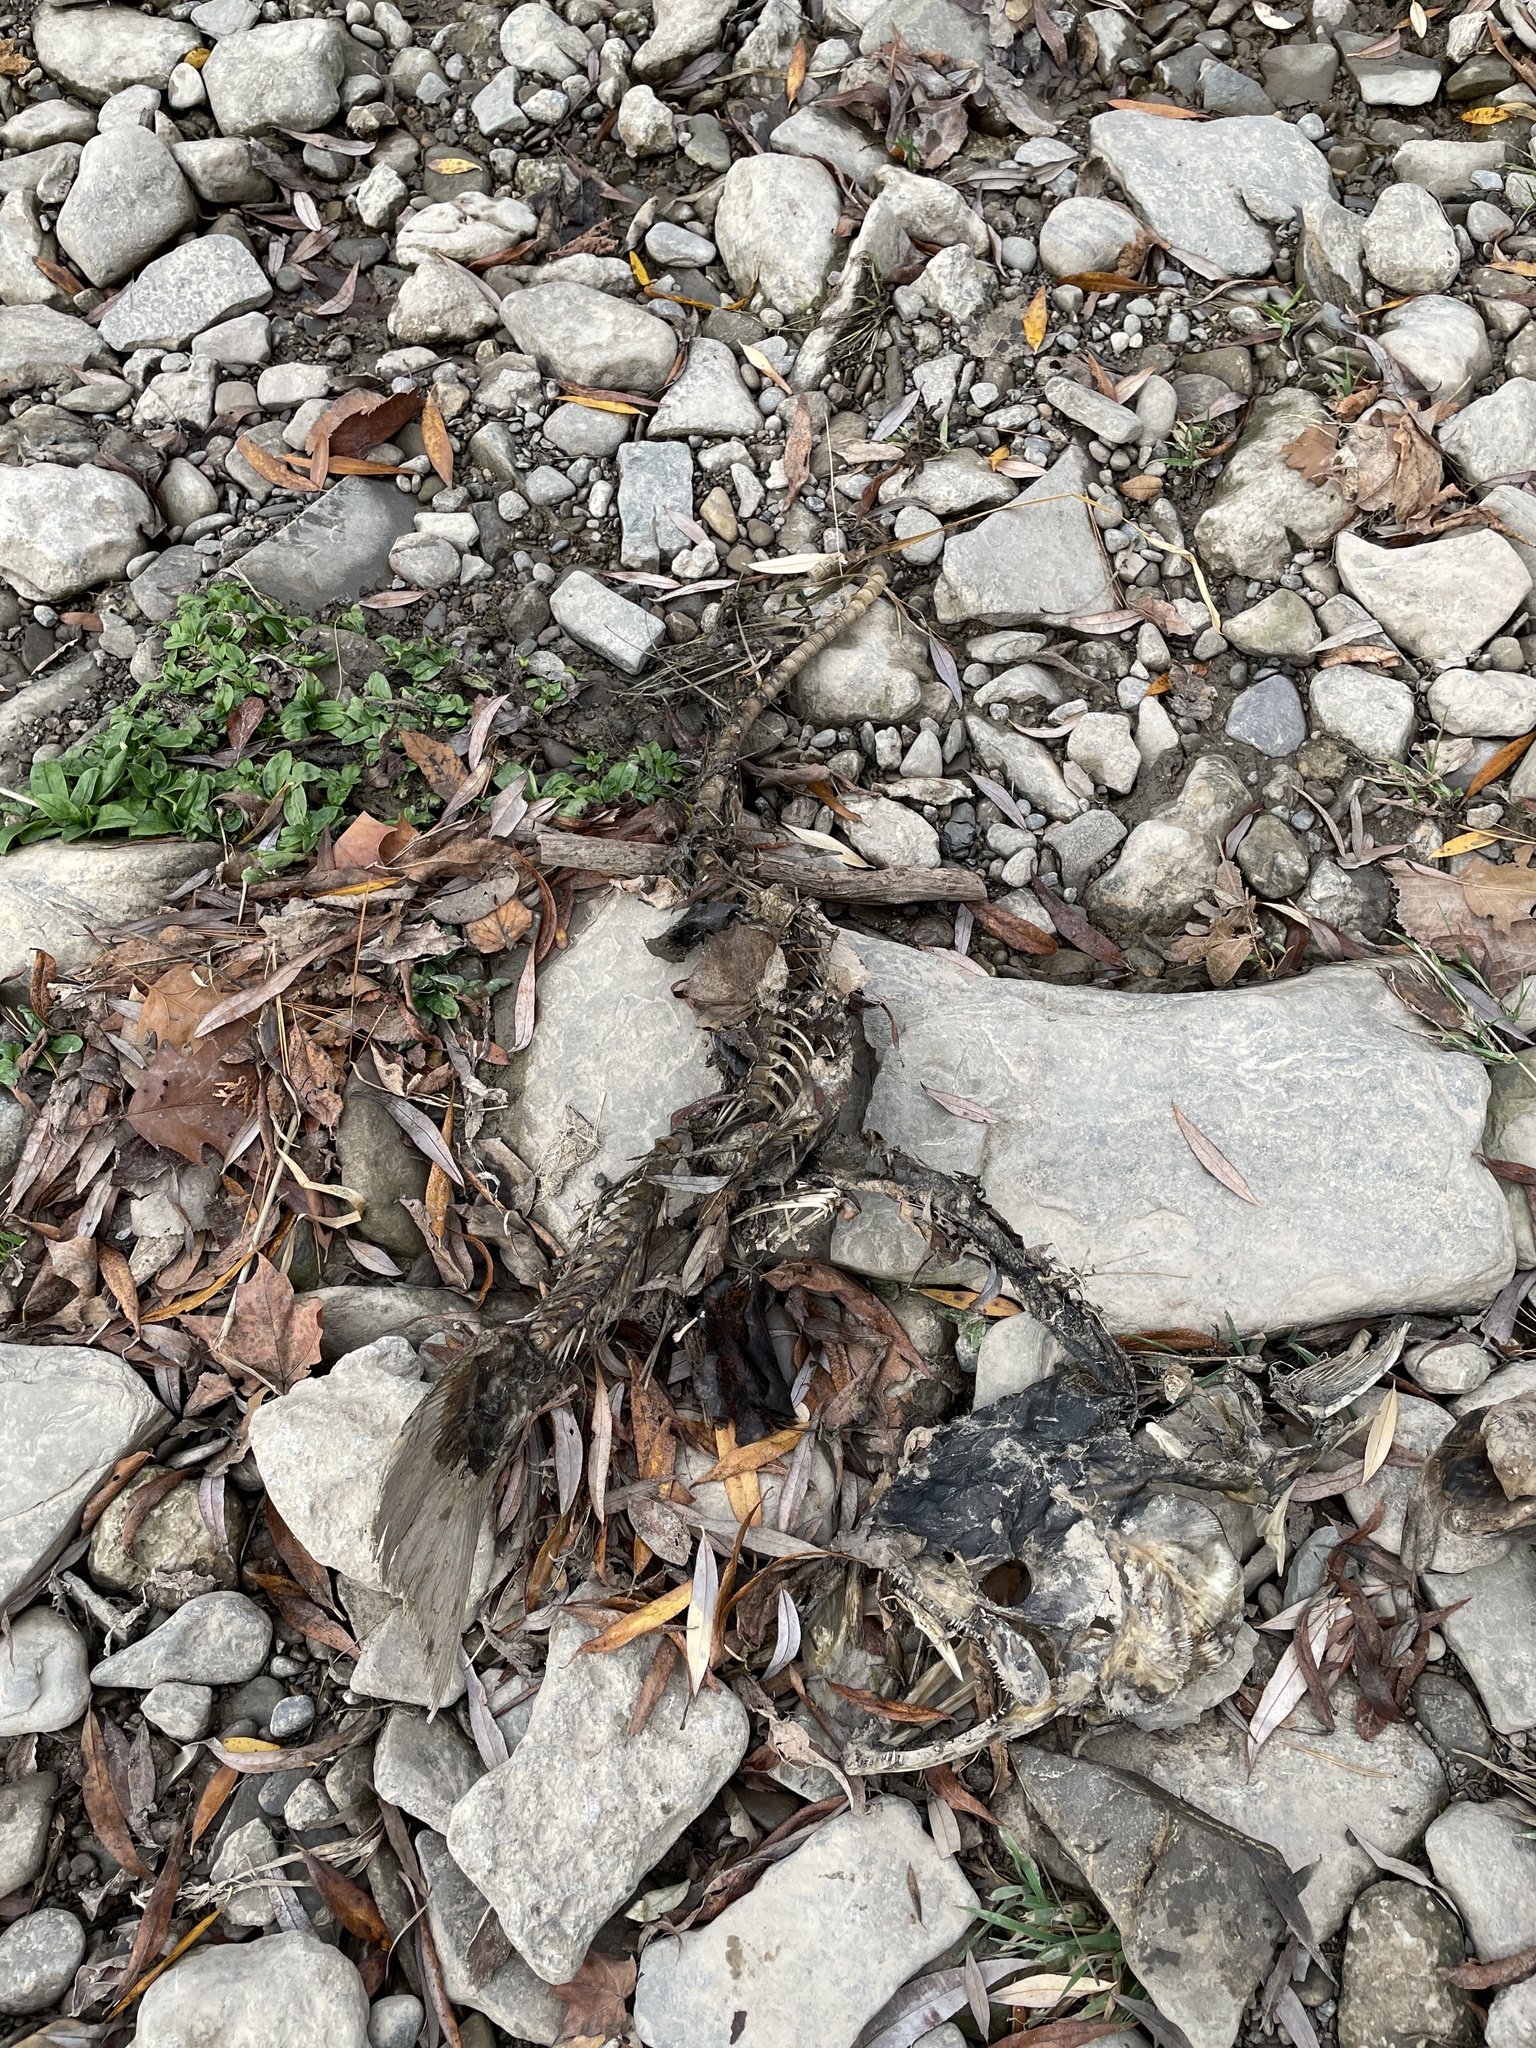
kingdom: Animalia
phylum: Chordata
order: Salmoniformes
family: Salmonidae
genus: Oncorhynchus
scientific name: Oncorhynchus tshawytscha
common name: Chinook salmon
